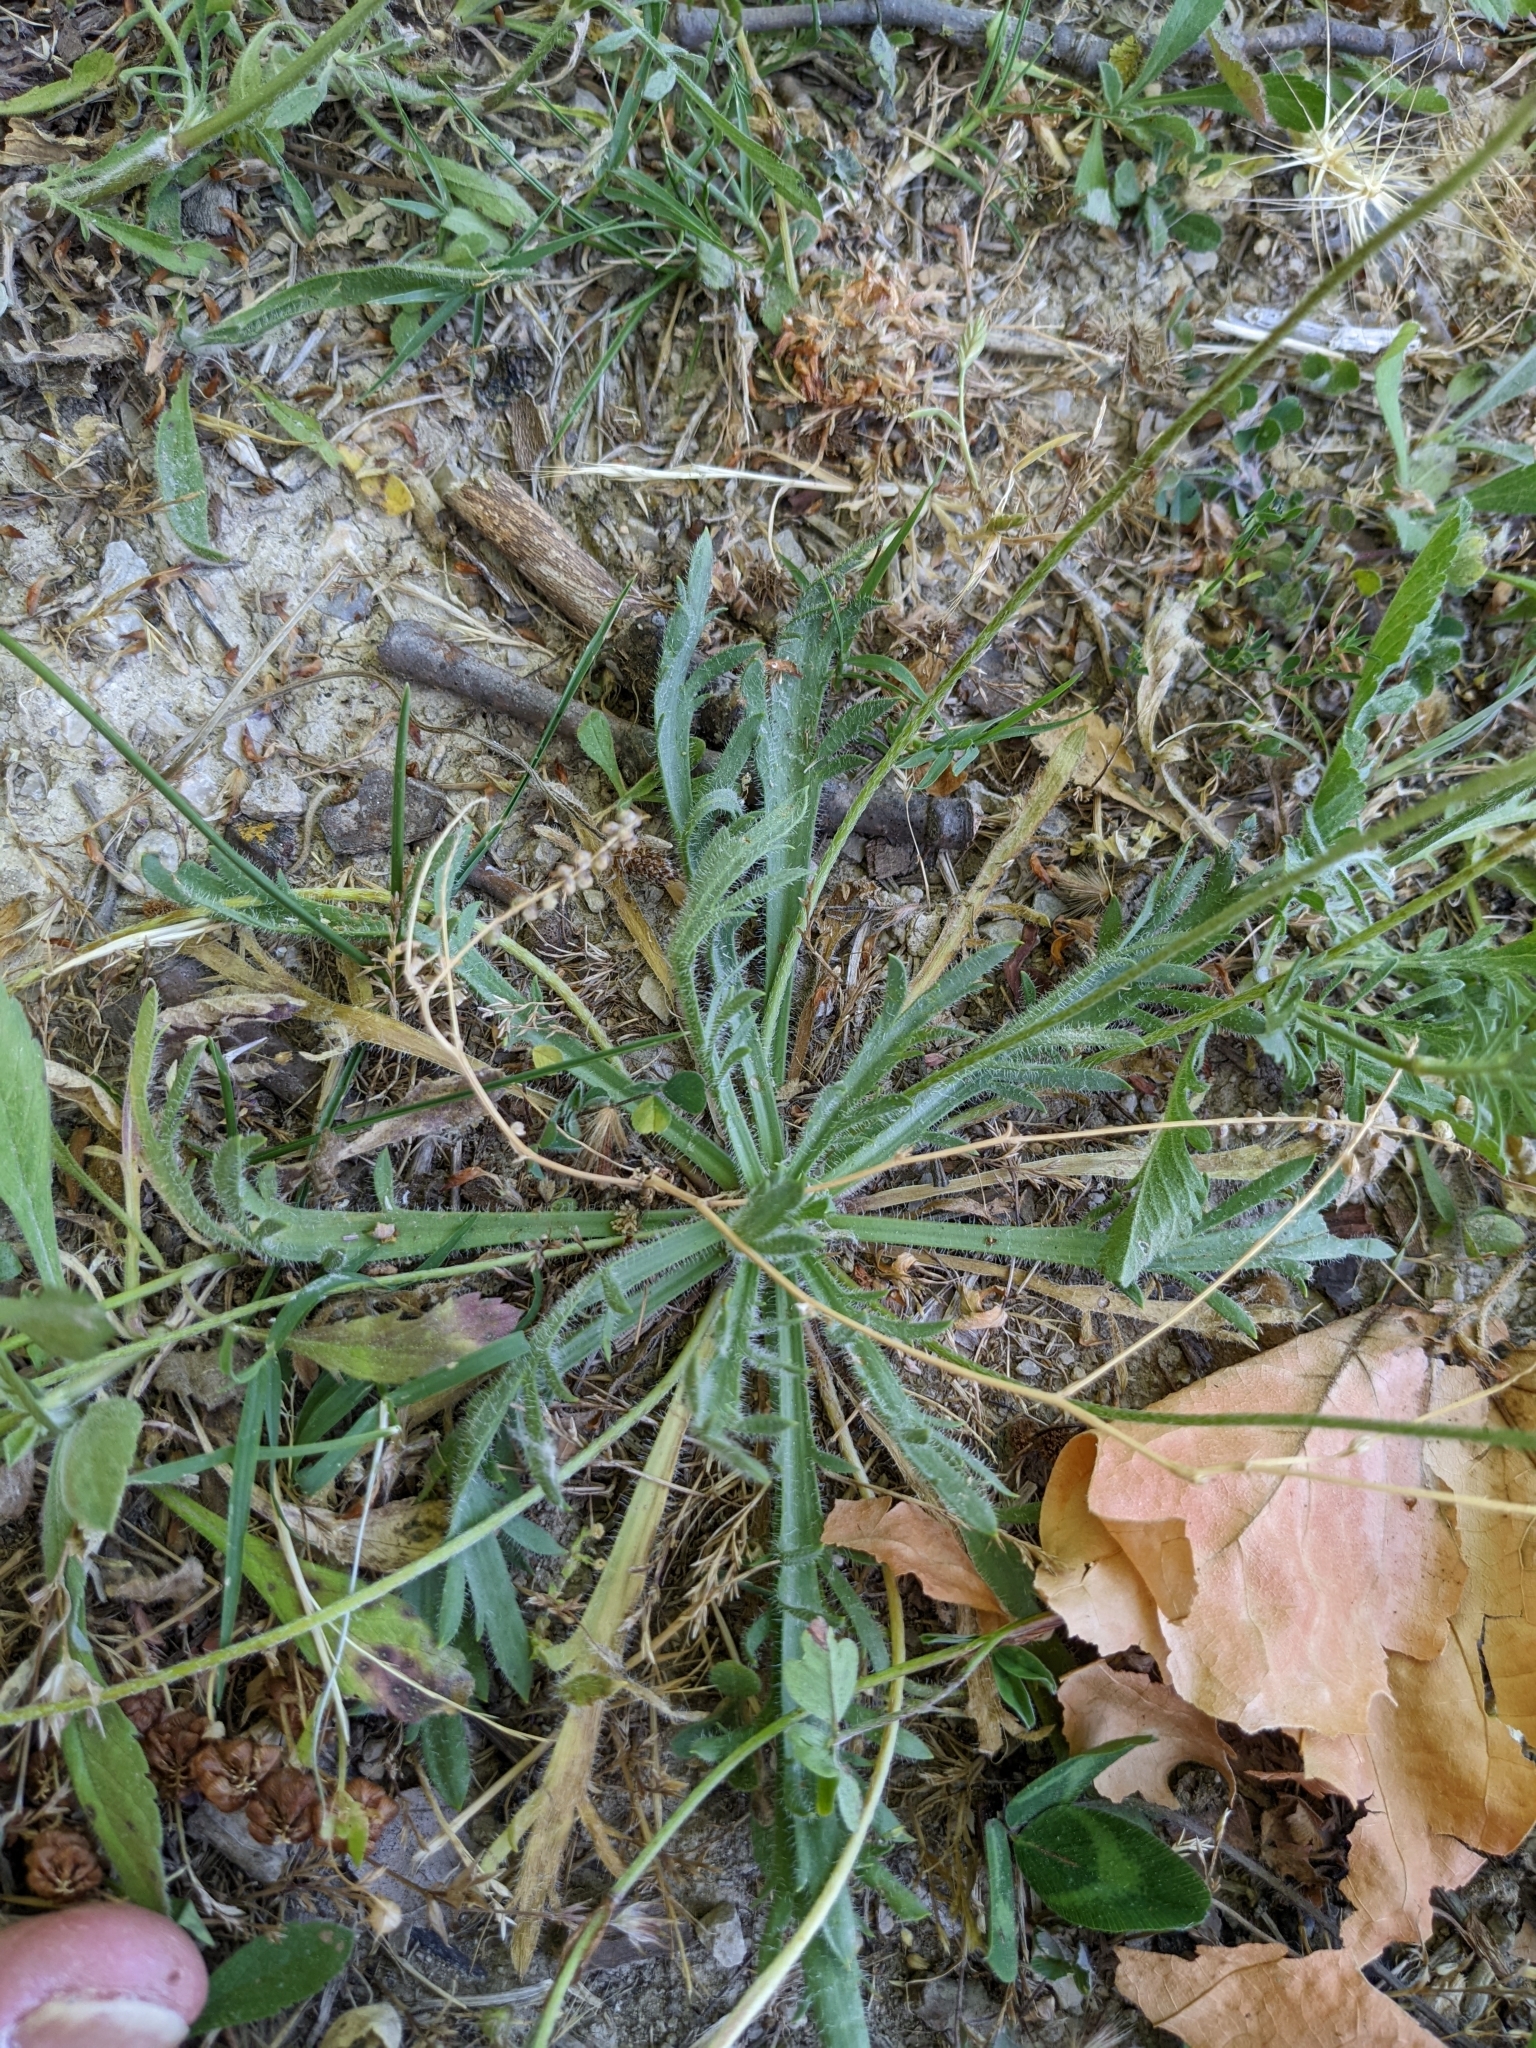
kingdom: Plantae
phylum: Tracheophyta
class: Magnoliopsida
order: Lamiales
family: Plantaginaceae
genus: Plantago
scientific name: Plantago coronopus
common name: Buck's-horn plantain
